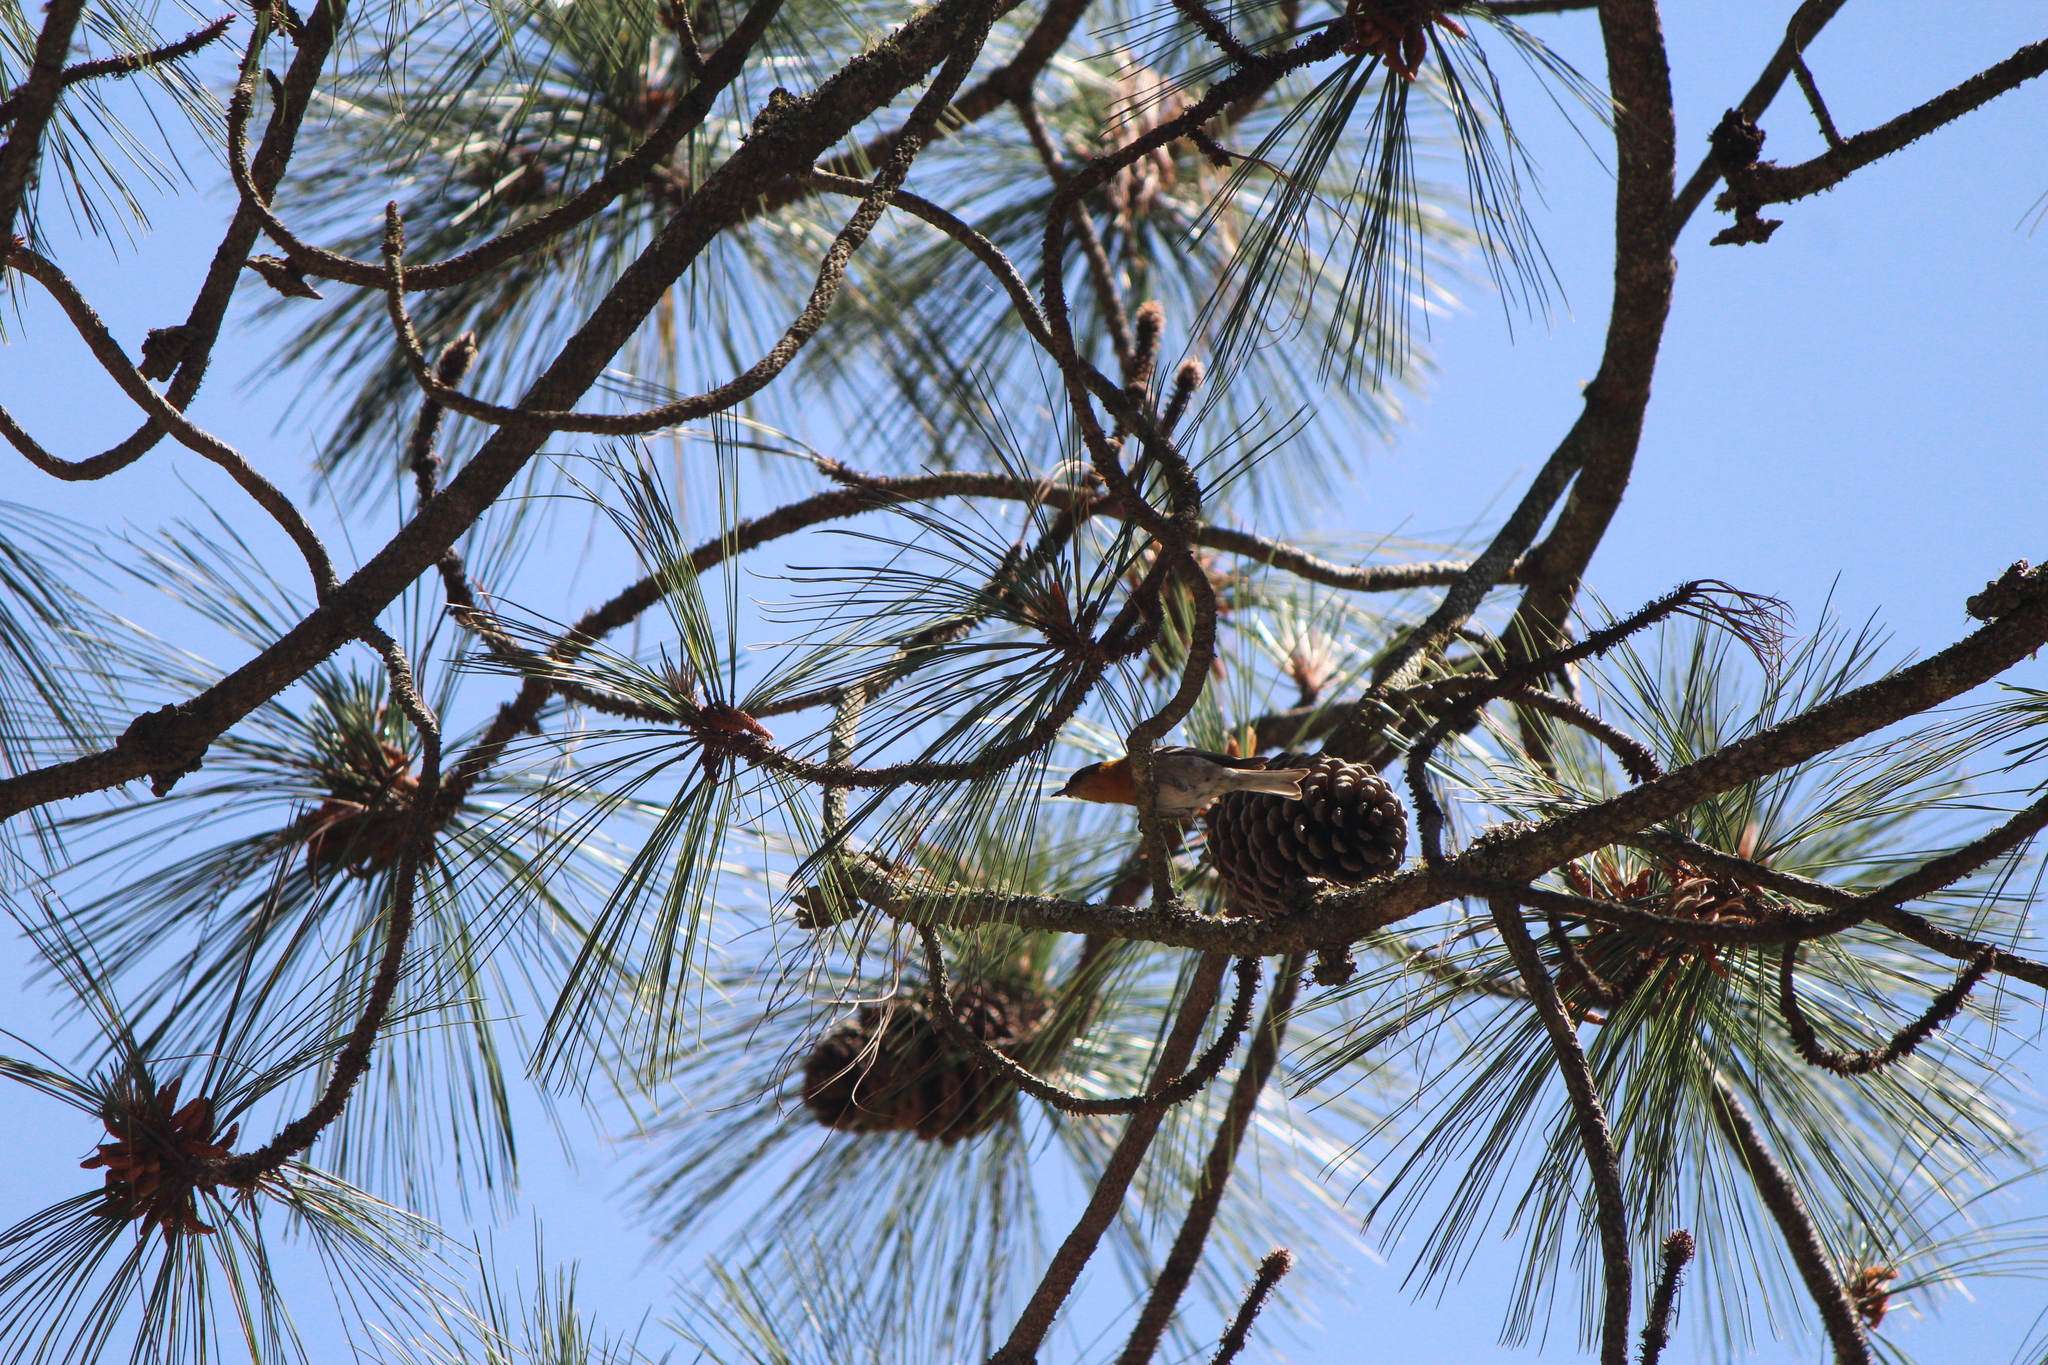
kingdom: Animalia
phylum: Chordata
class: Aves
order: Passeriformes
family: Peucedramidae
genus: Peucedramus
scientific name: Peucedramus taeniatus
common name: Olive warbler
